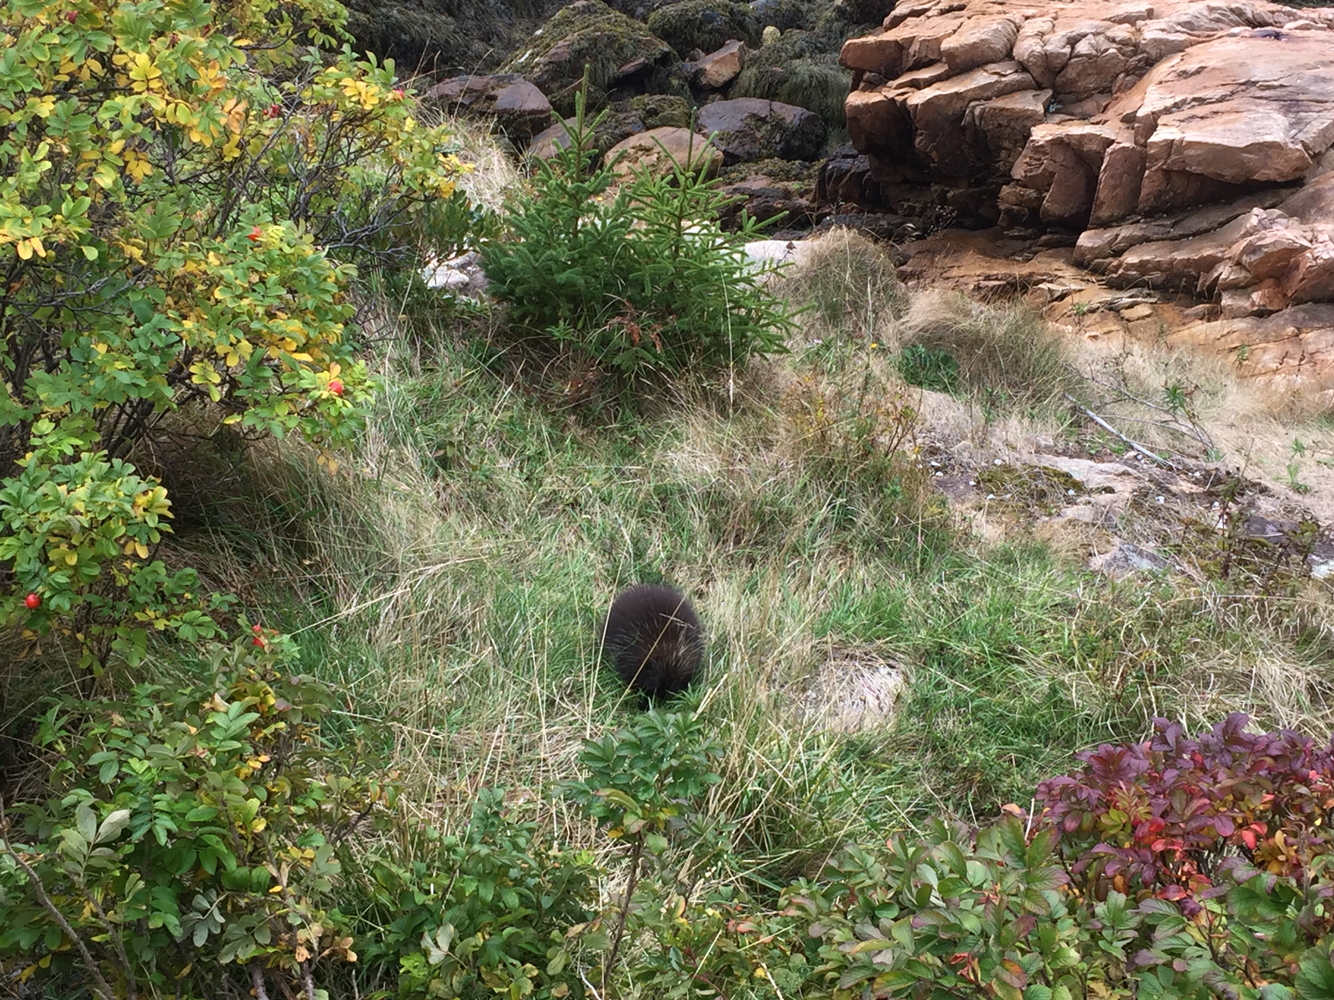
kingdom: Animalia
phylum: Chordata
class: Mammalia
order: Rodentia
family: Erethizontidae
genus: Erethizon
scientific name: Erethizon dorsatus
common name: North american porcupine
